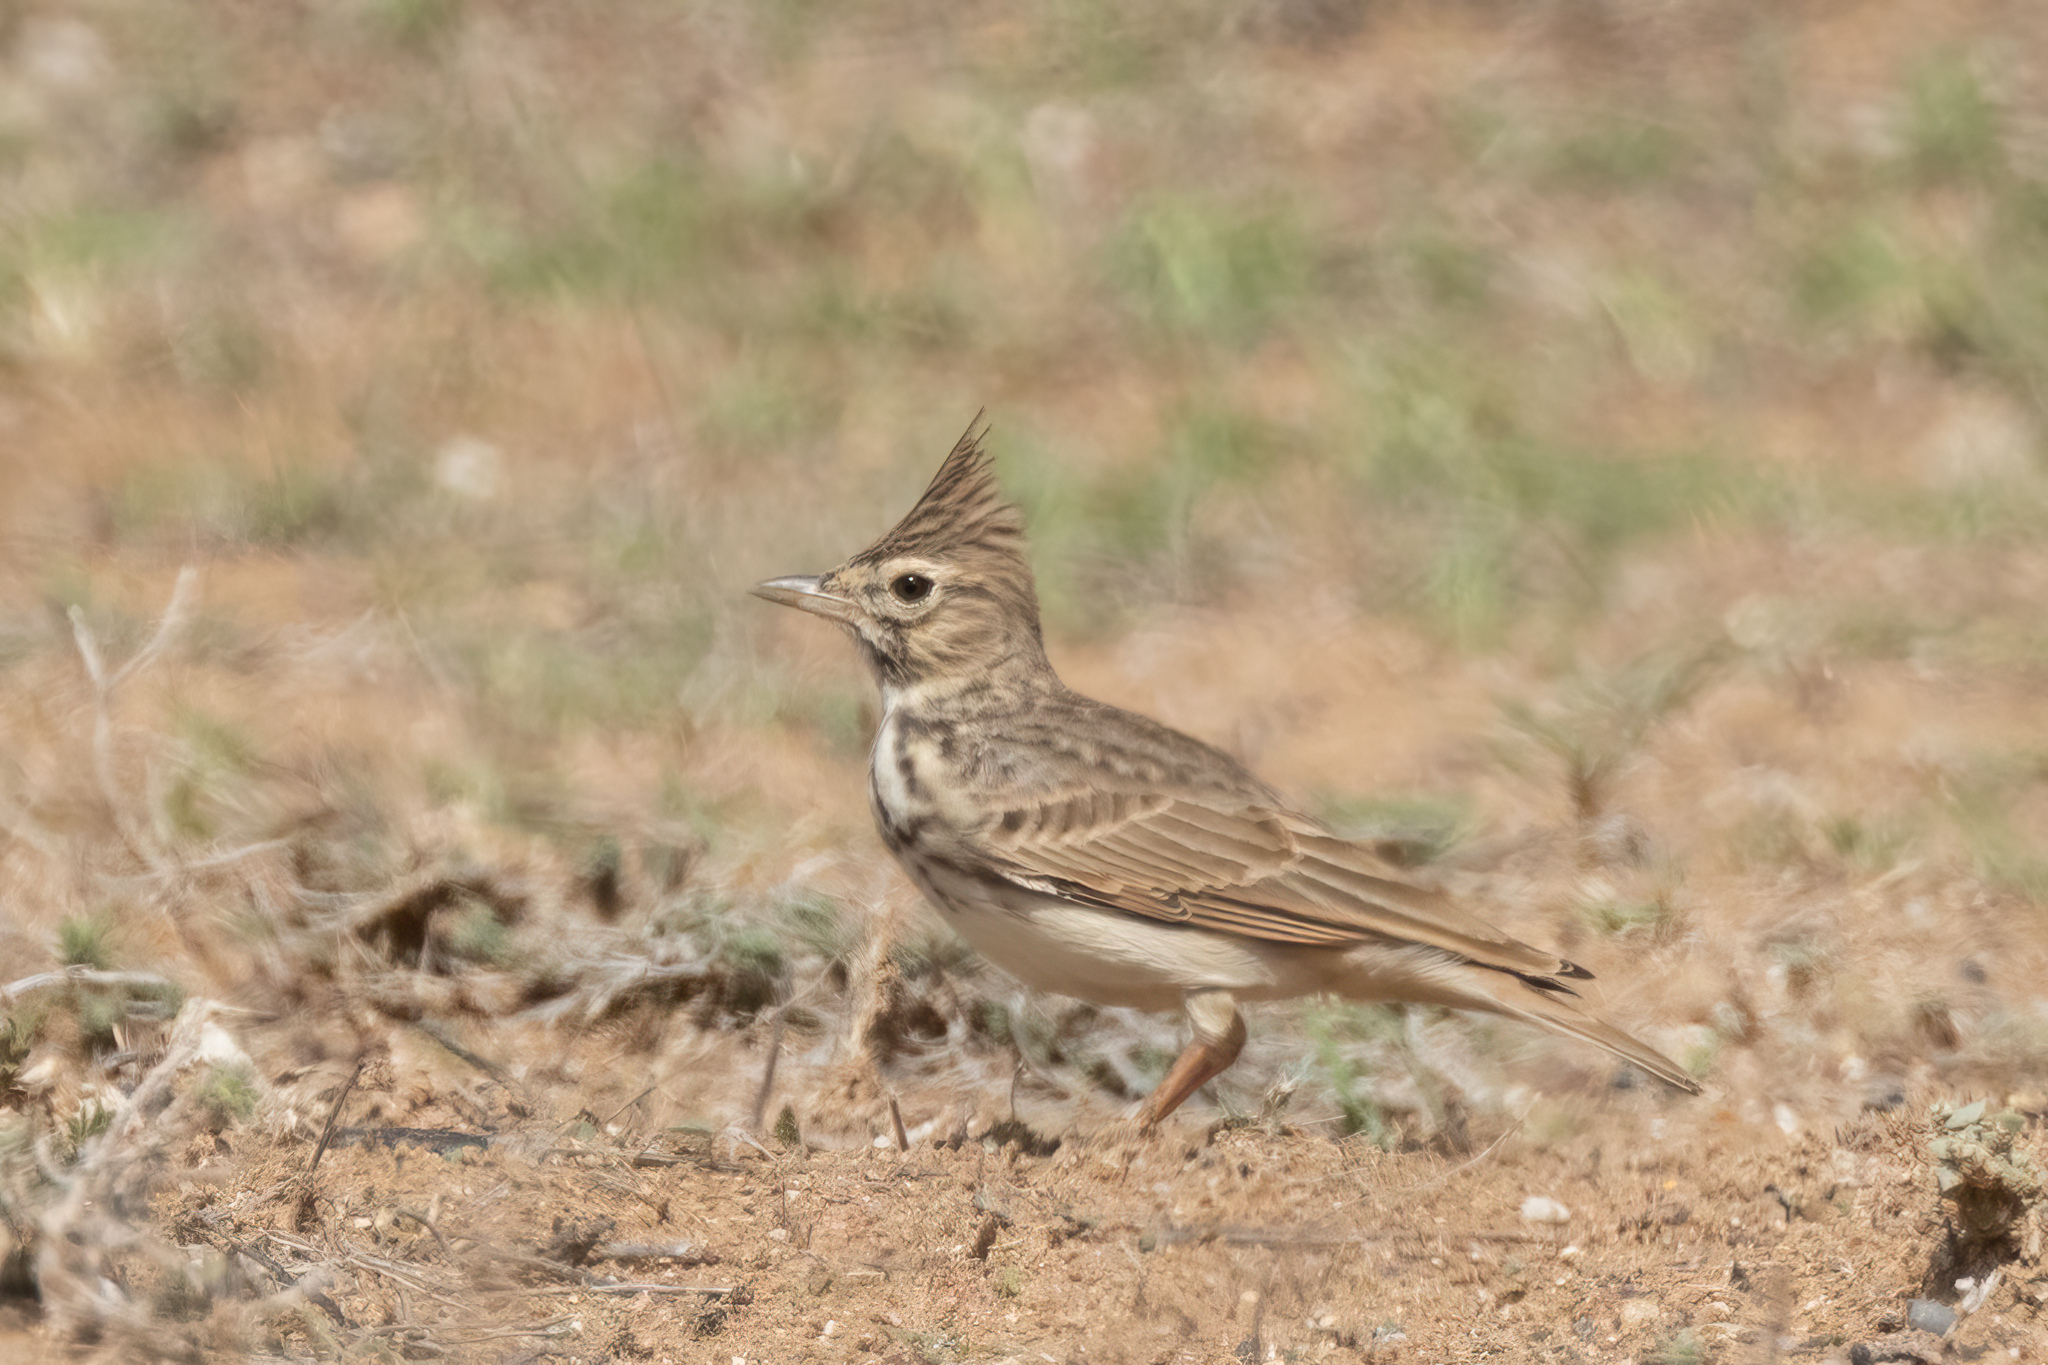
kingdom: Animalia
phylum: Chordata
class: Aves
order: Passeriformes
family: Alaudidae
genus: Galerida
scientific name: Galerida theklae
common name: Thekla lark
